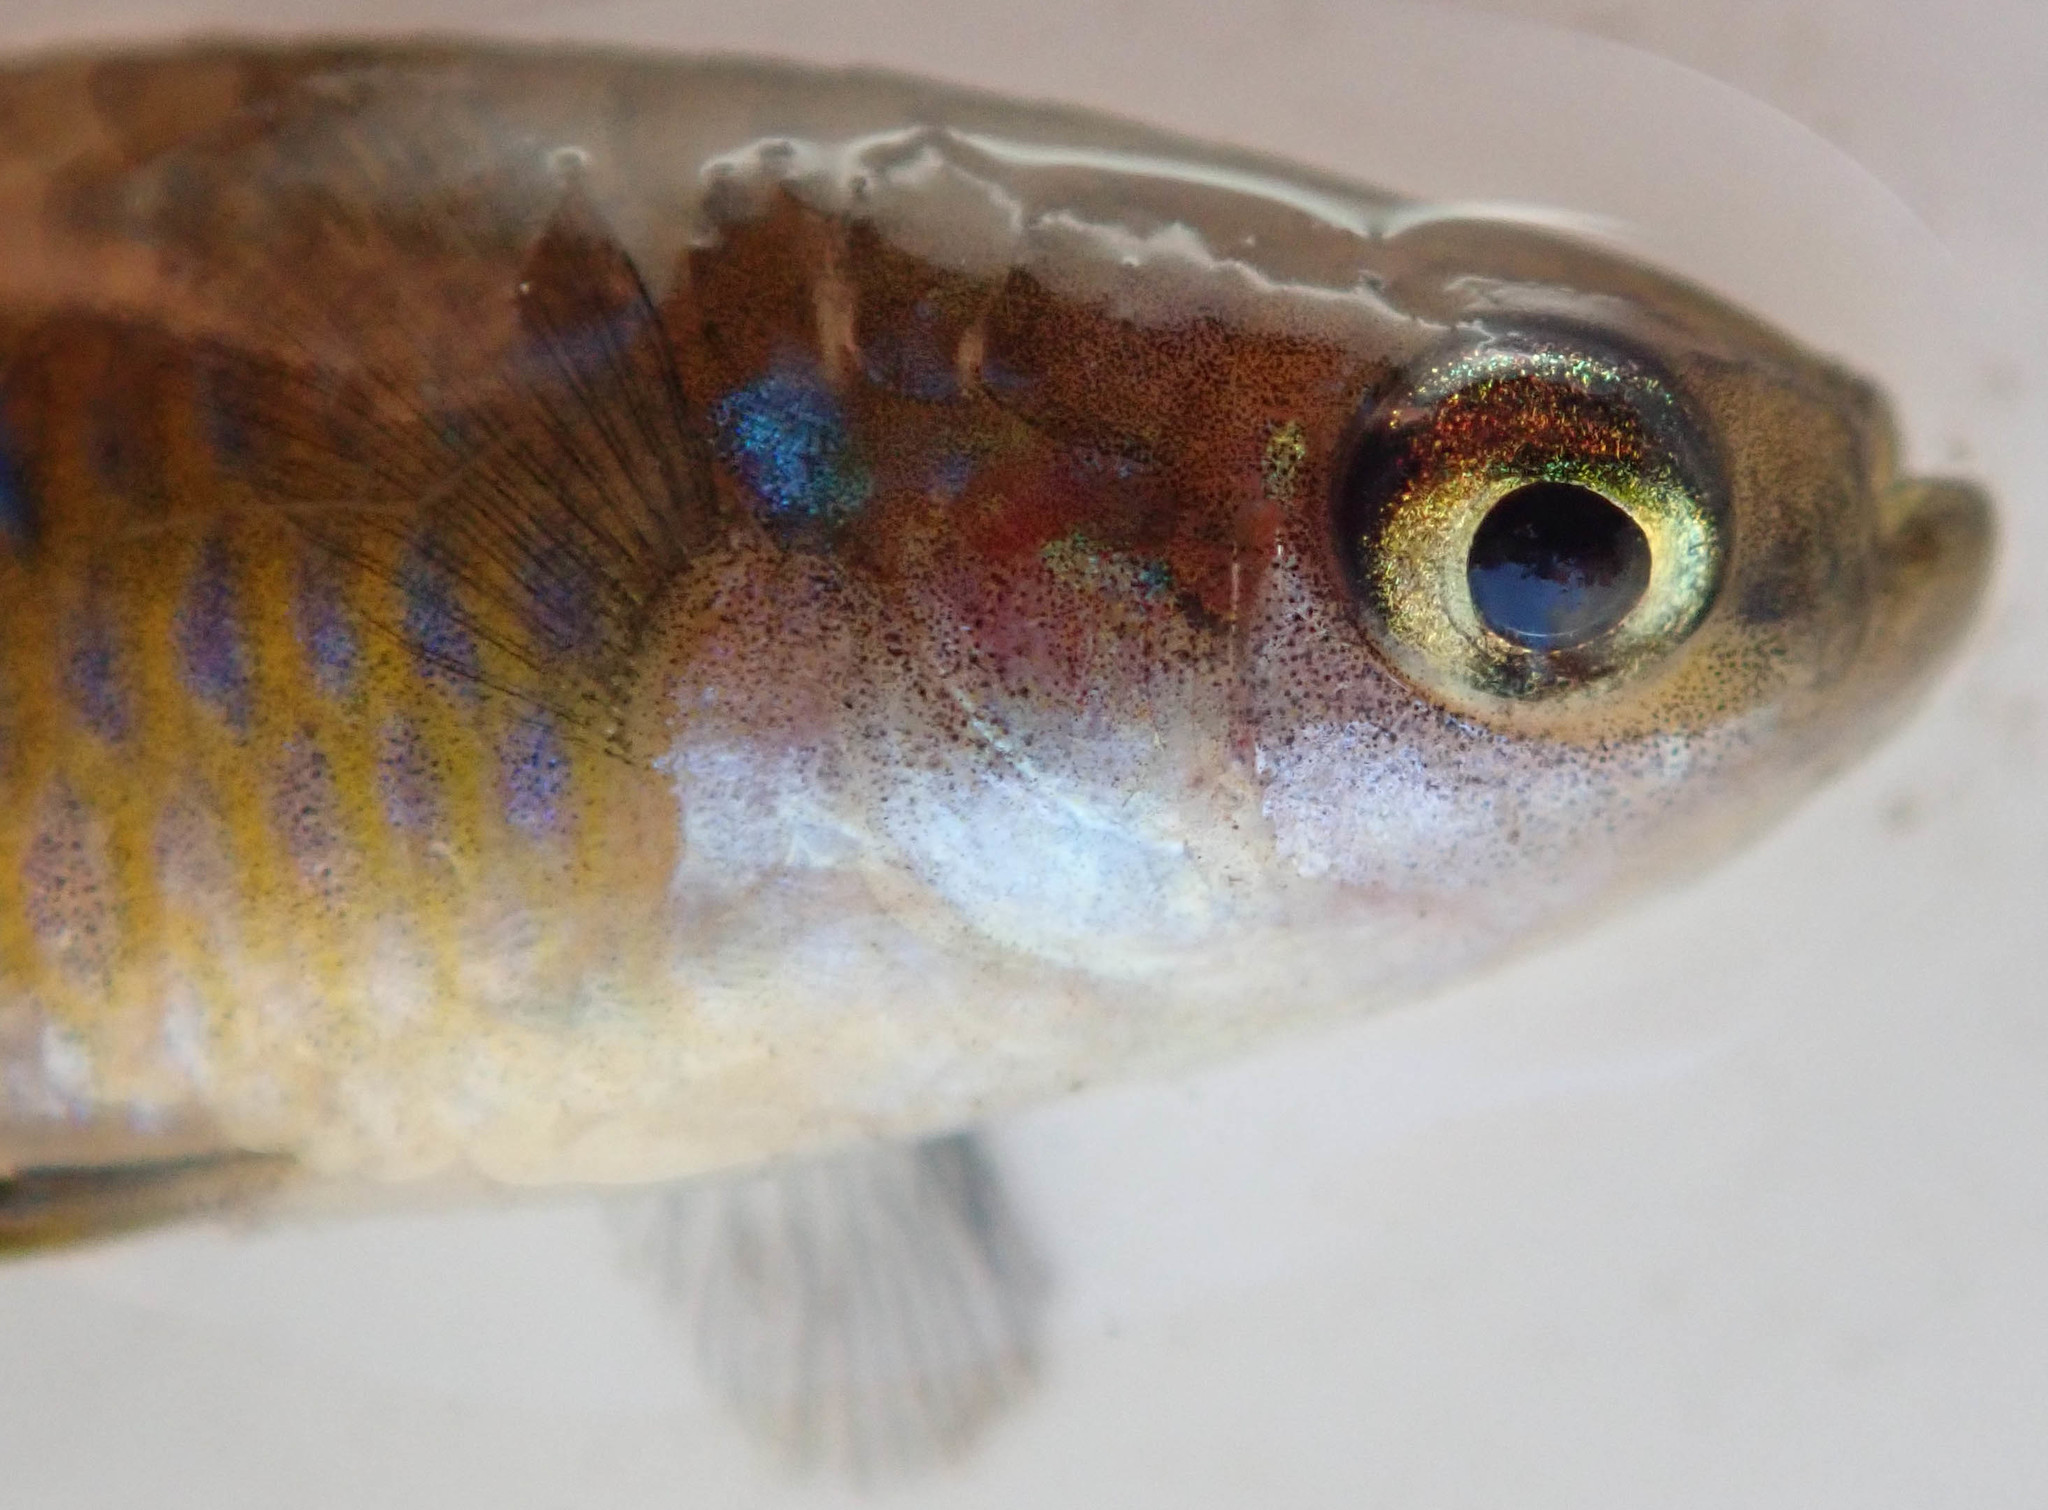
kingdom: Animalia
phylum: Chordata
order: Cyprinodontiformes
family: Poeciliidae
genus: Lacustricola
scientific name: Lacustricola pygmaeus
